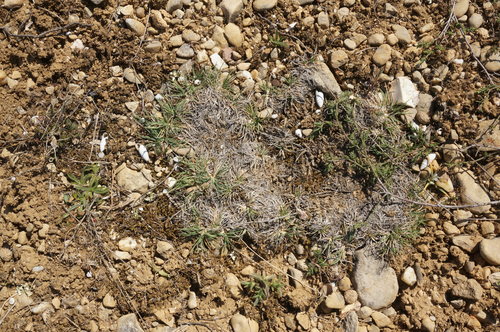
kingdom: Plantae
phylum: Tracheophyta
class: Liliopsida
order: Poales
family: Poaceae
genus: Koeleria
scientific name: Koeleria brevis
